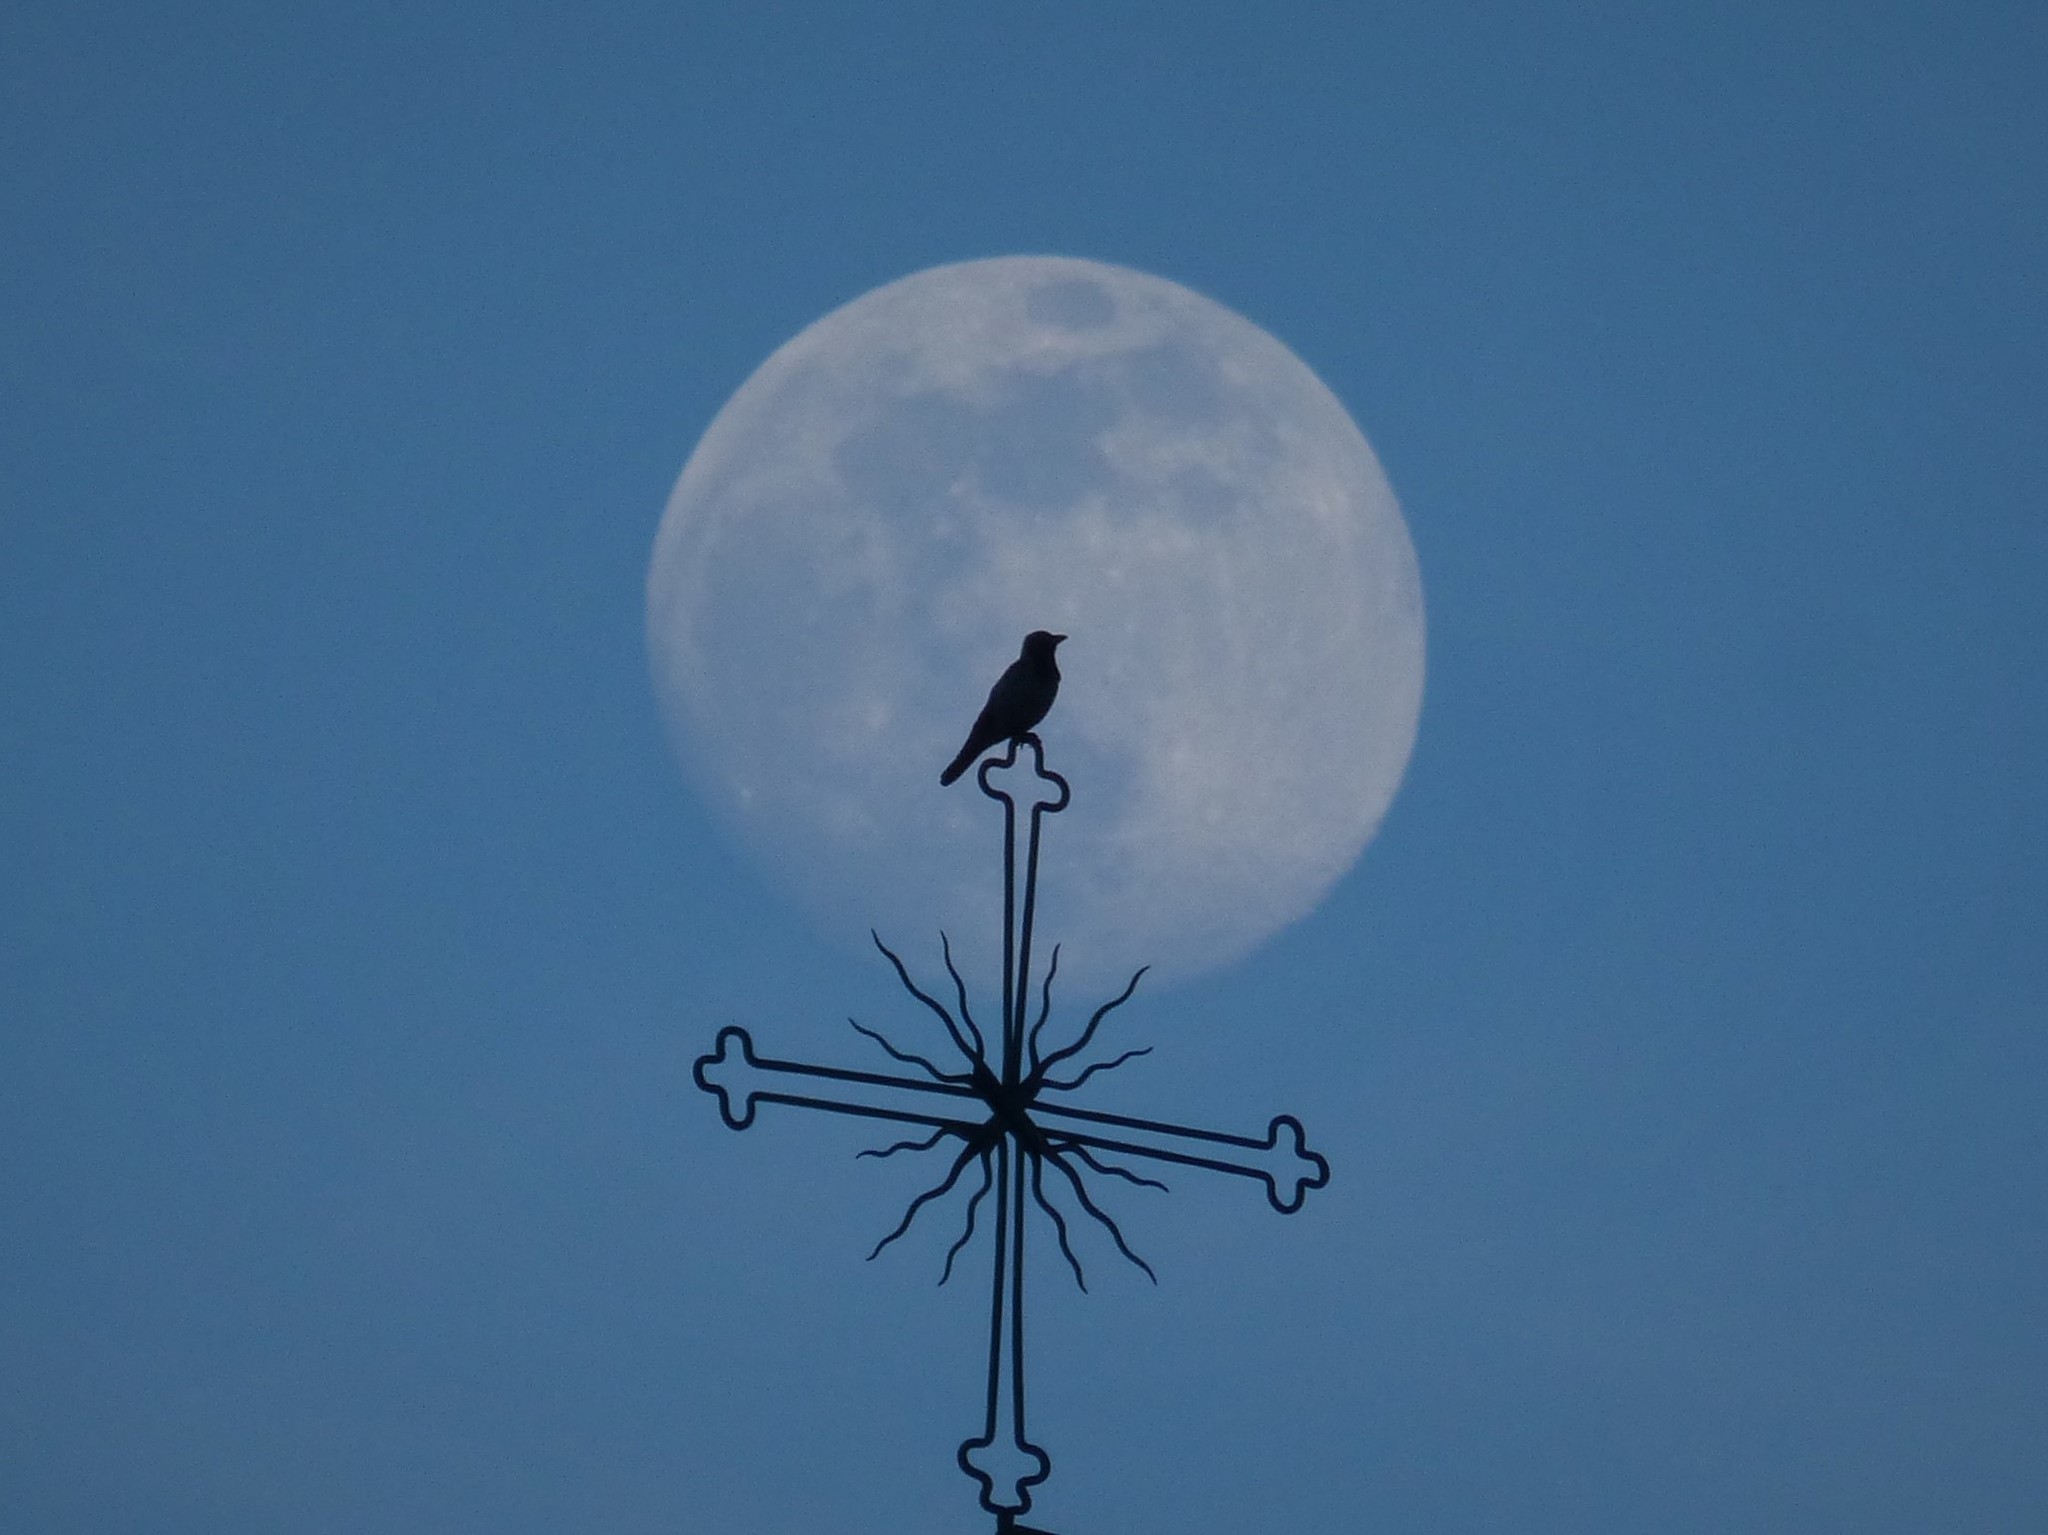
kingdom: Animalia
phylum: Chordata
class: Aves
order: Passeriformes
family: Corvidae
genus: Corvus
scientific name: Corvus cornix
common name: Hooded crow
